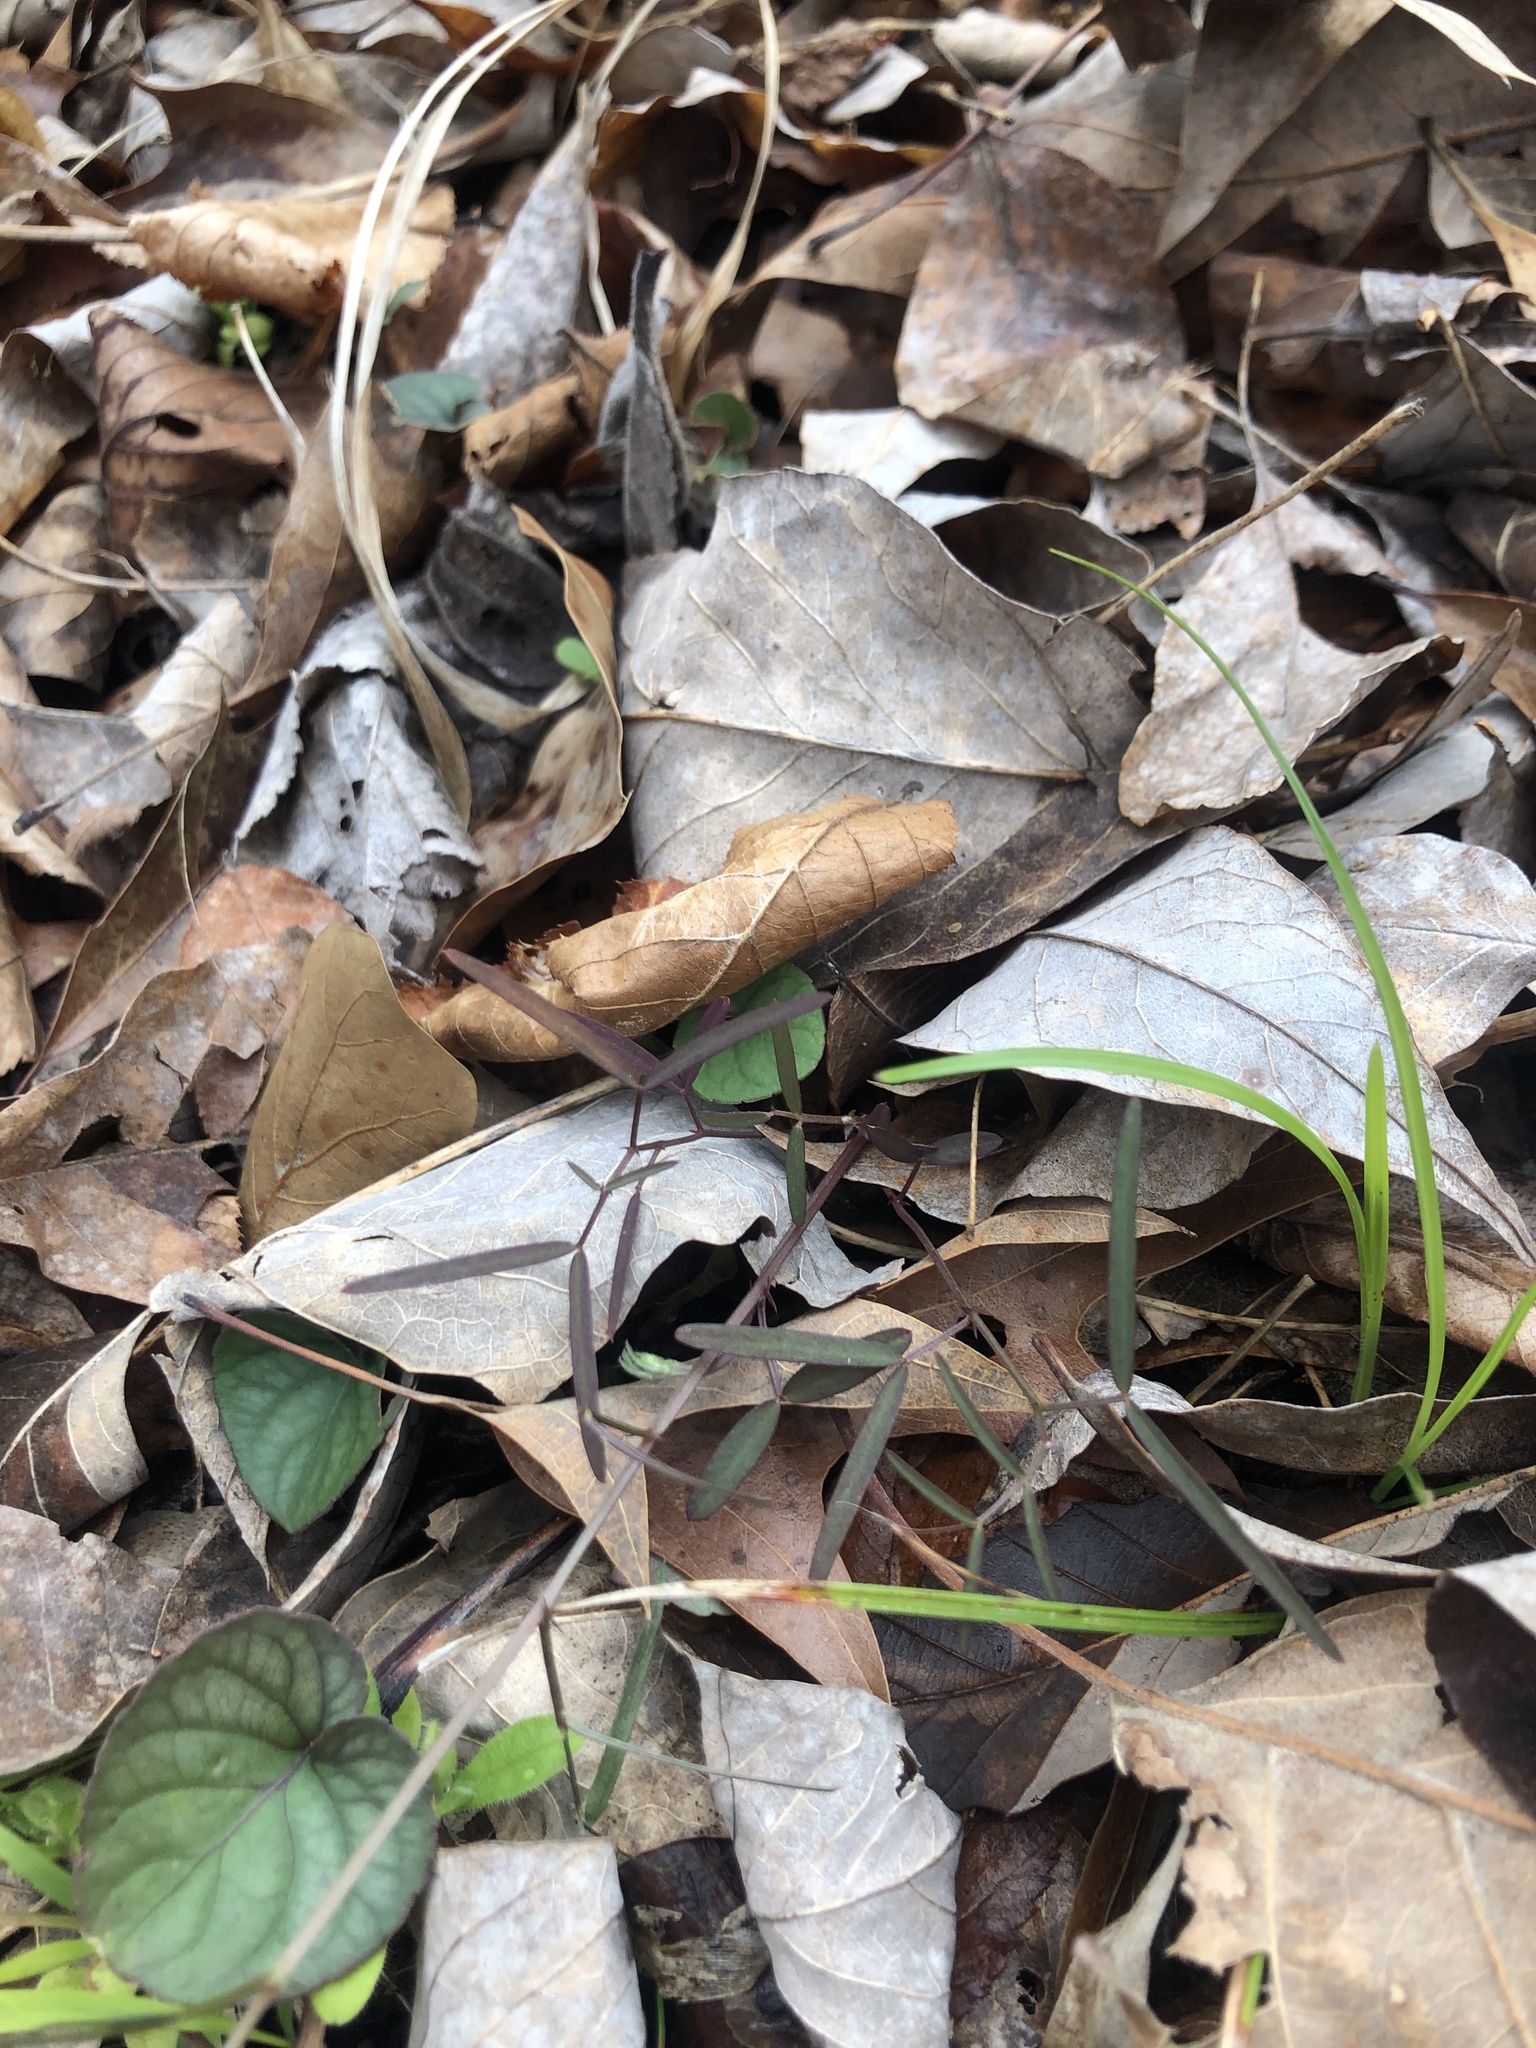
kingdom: Plantae
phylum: Tracheophyta
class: Magnoliopsida
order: Fabales
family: Fabaceae
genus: Vicia
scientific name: Vicia minutiflora
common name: Pygmy-flower vetch
